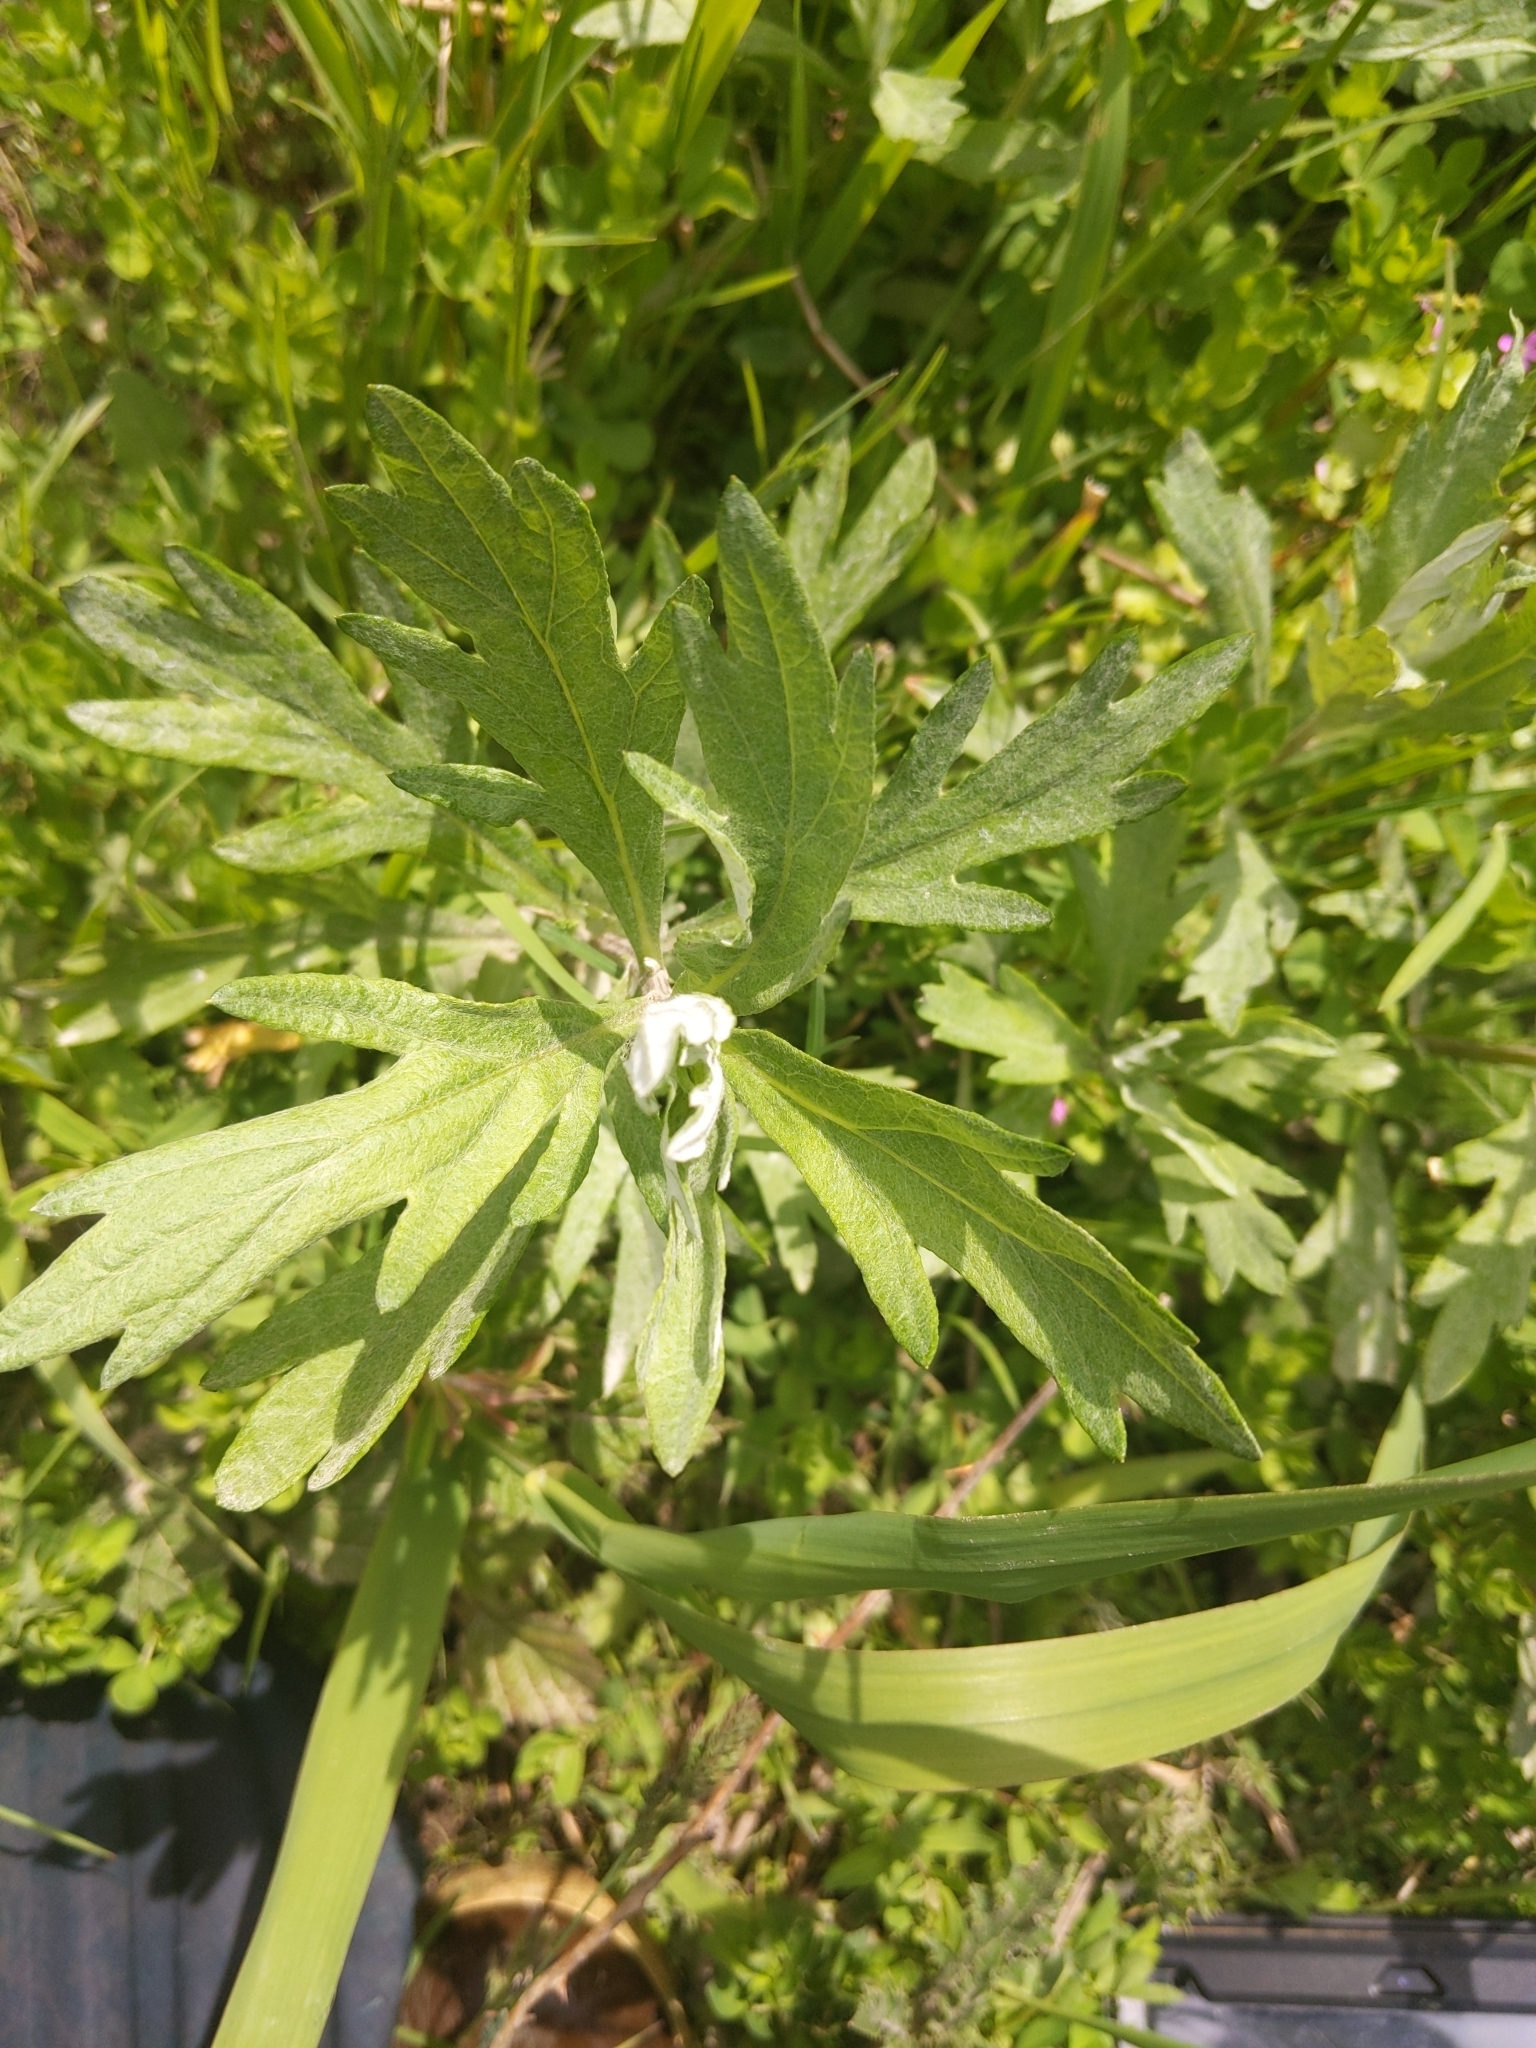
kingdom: Plantae
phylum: Tracheophyta
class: Magnoliopsida
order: Asterales
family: Asteraceae
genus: Artemisia
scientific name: Artemisia vulgaris
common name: Mugwort
